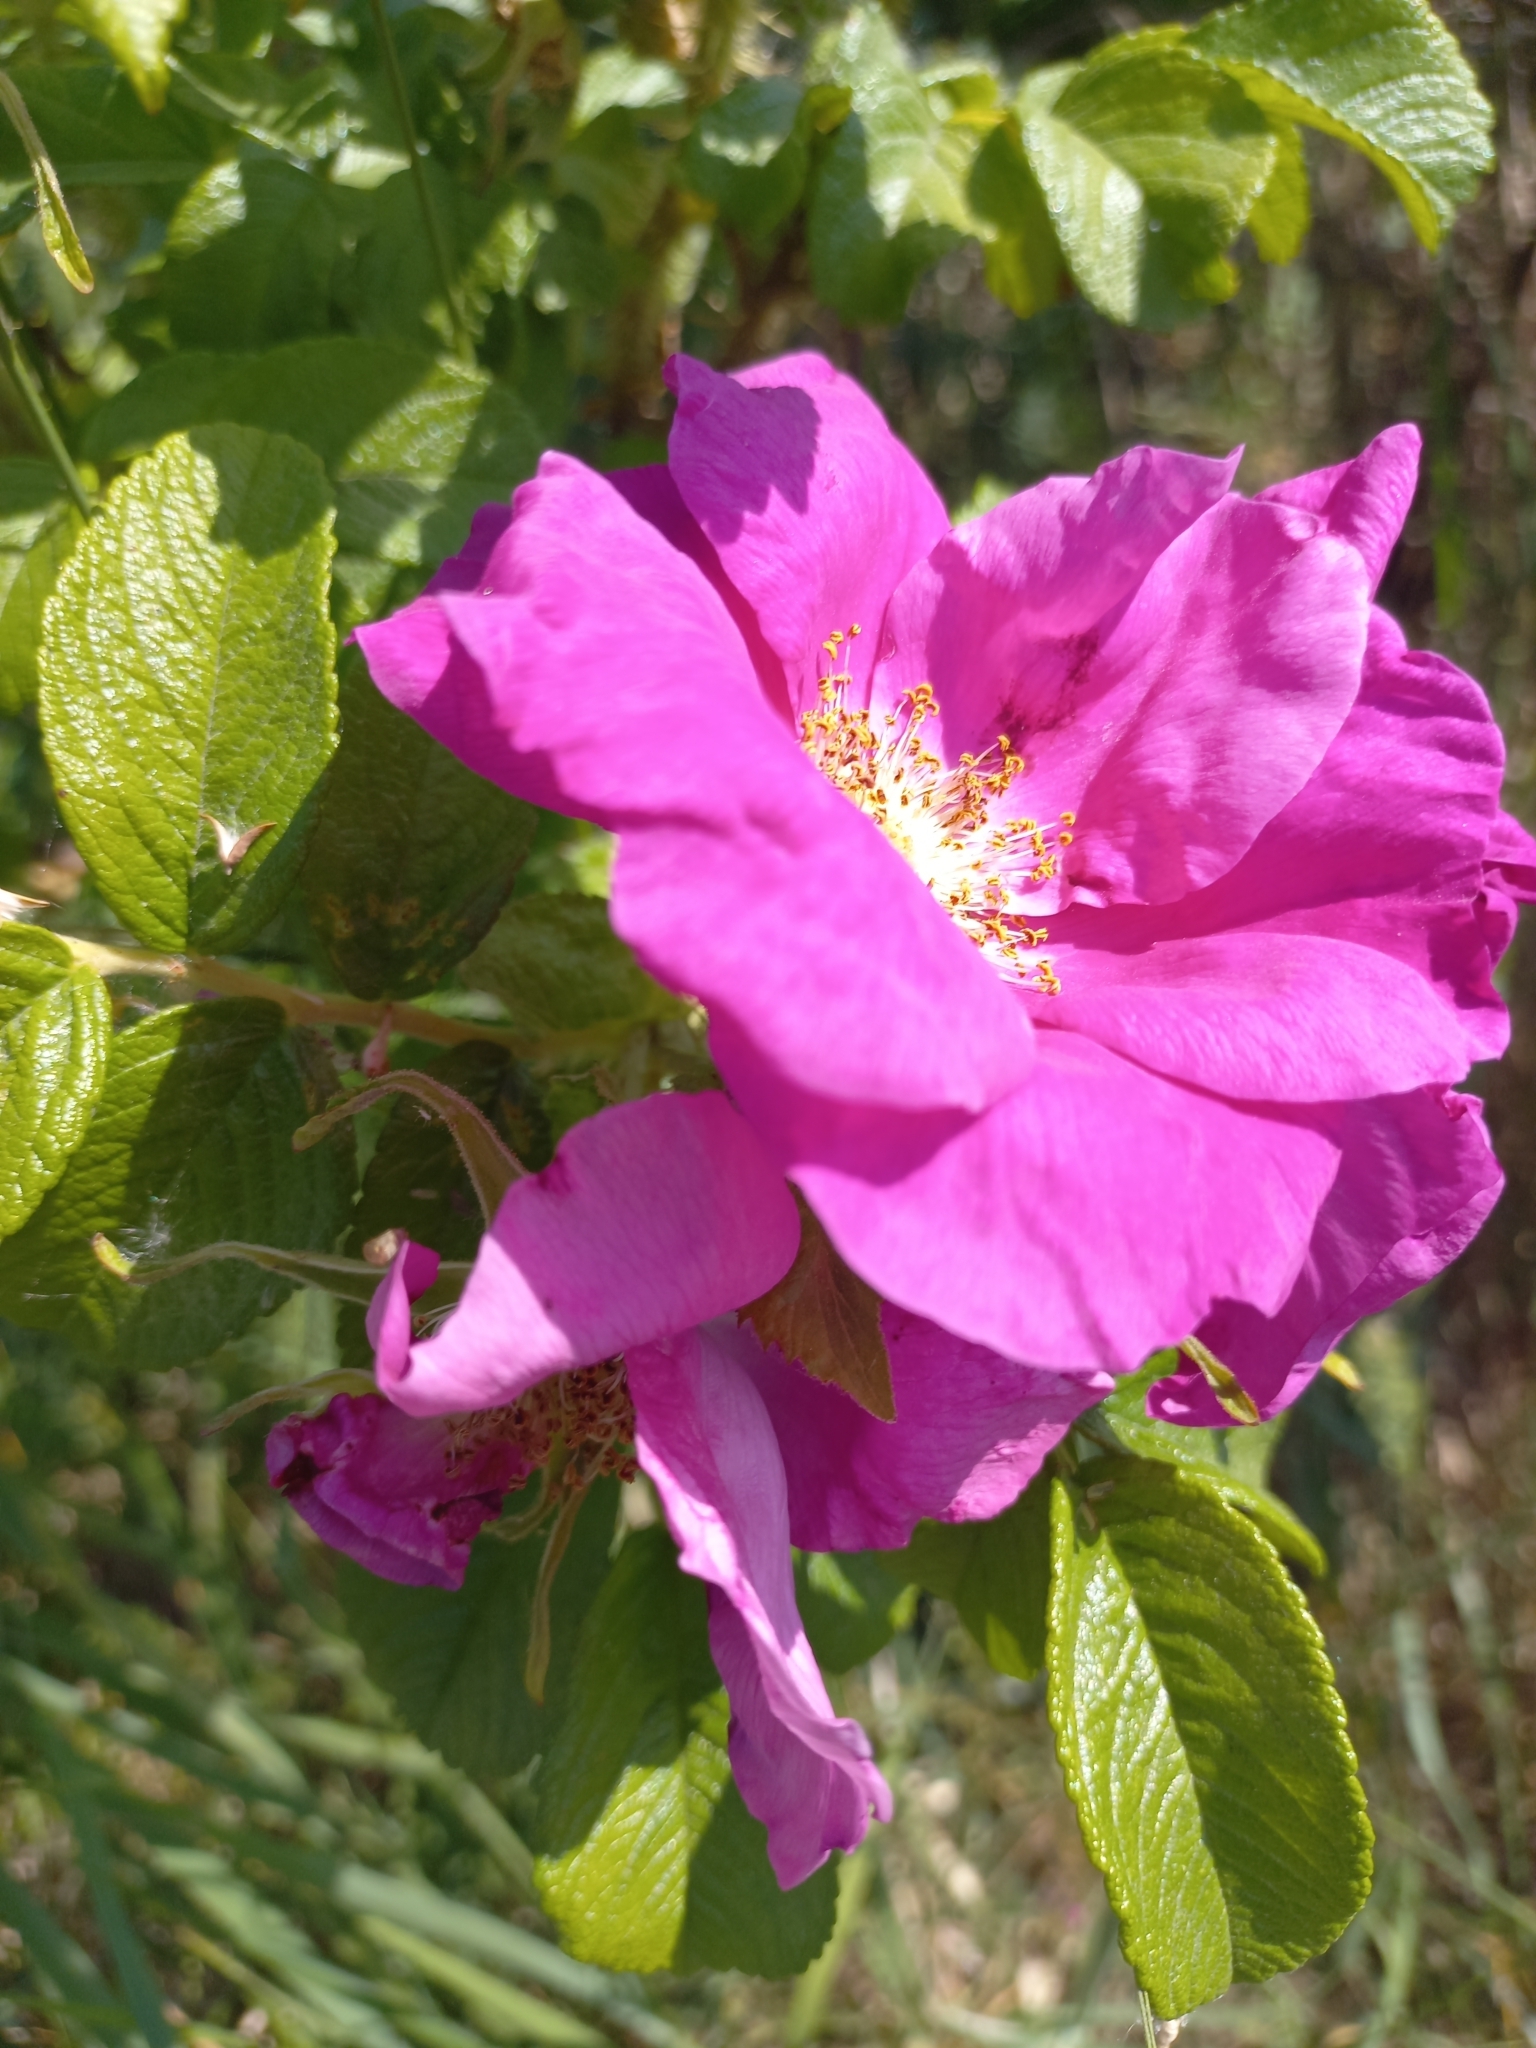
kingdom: Plantae
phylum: Tracheophyta
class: Magnoliopsida
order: Rosales
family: Rosaceae
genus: Rosa
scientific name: Rosa rugosa
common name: Japanese rose
